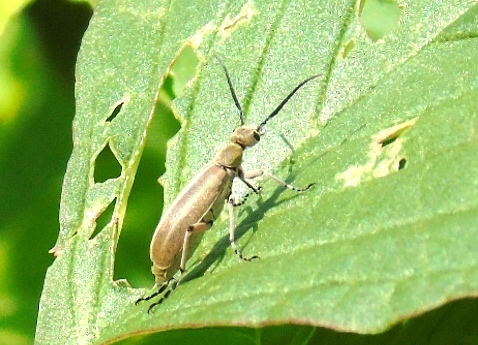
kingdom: Animalia
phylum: Arthropoda
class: Insecta
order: Coleoptera
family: Meloidae
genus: Epicauta
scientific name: Epicauta cupraeola
